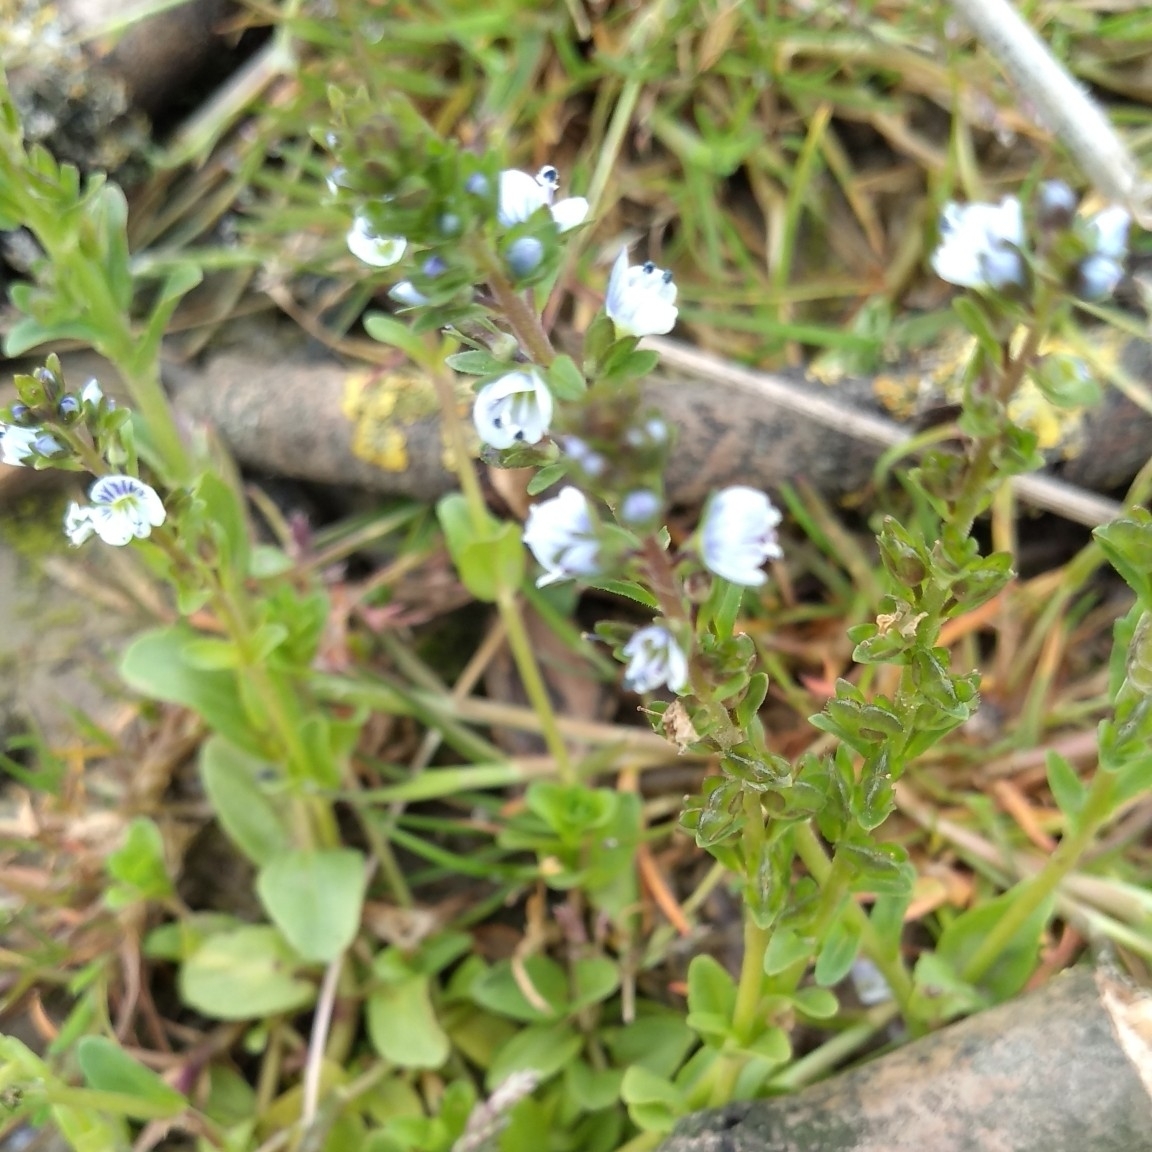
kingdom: Plantae
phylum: Tracheophyta
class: Magnoliopsida
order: Lamiales
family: Plantaginaceae
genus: Veronica
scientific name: Veronica serpyllifolia
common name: Thyme-leaved speedwell
